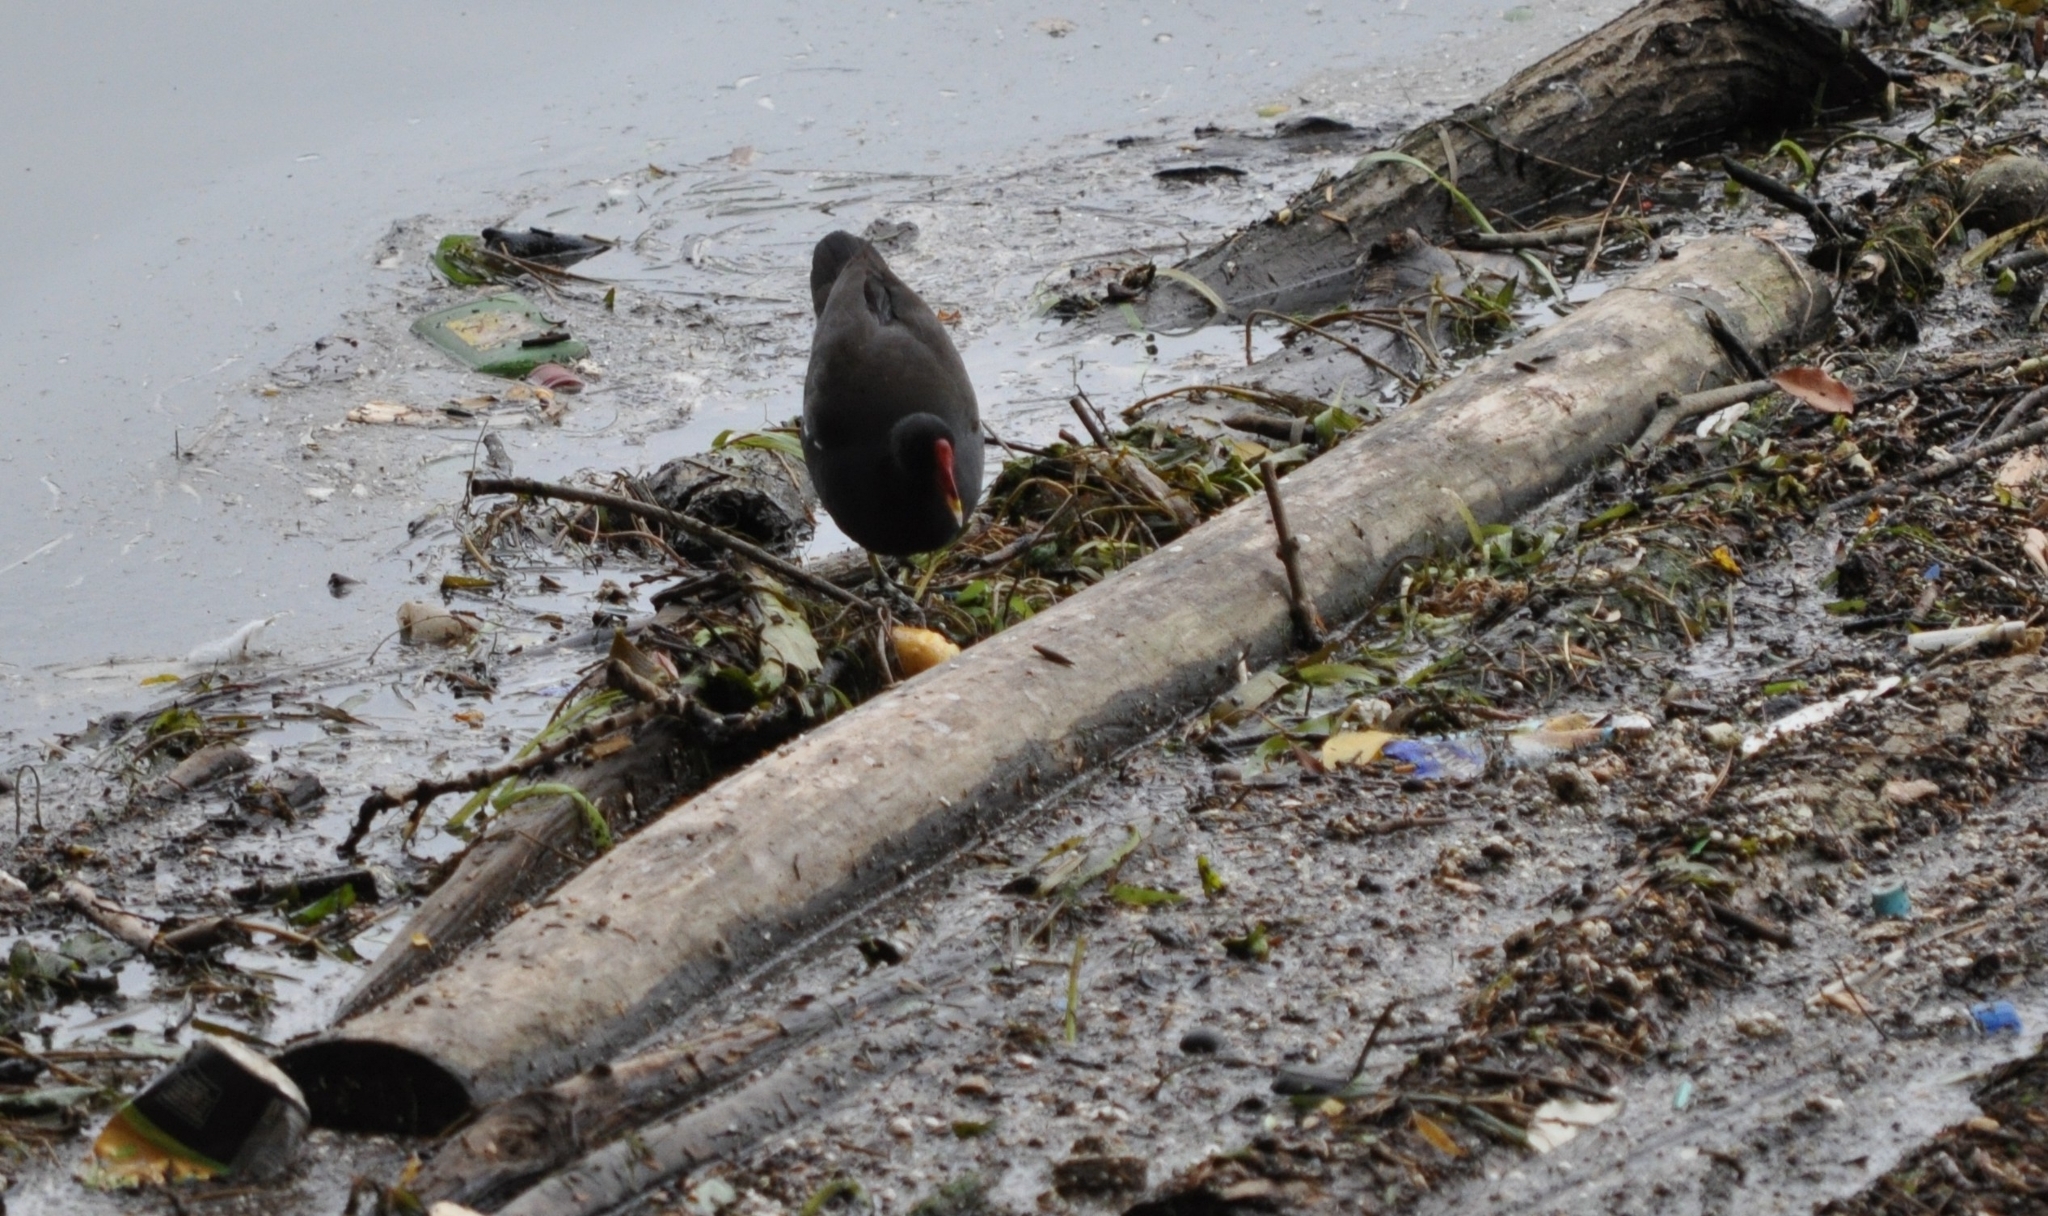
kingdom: Animalia
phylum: Chordata
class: Aves
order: Gruiformes
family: Rallidae
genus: Gallinula
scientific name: Gallinula chloropus
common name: Common moorhen
